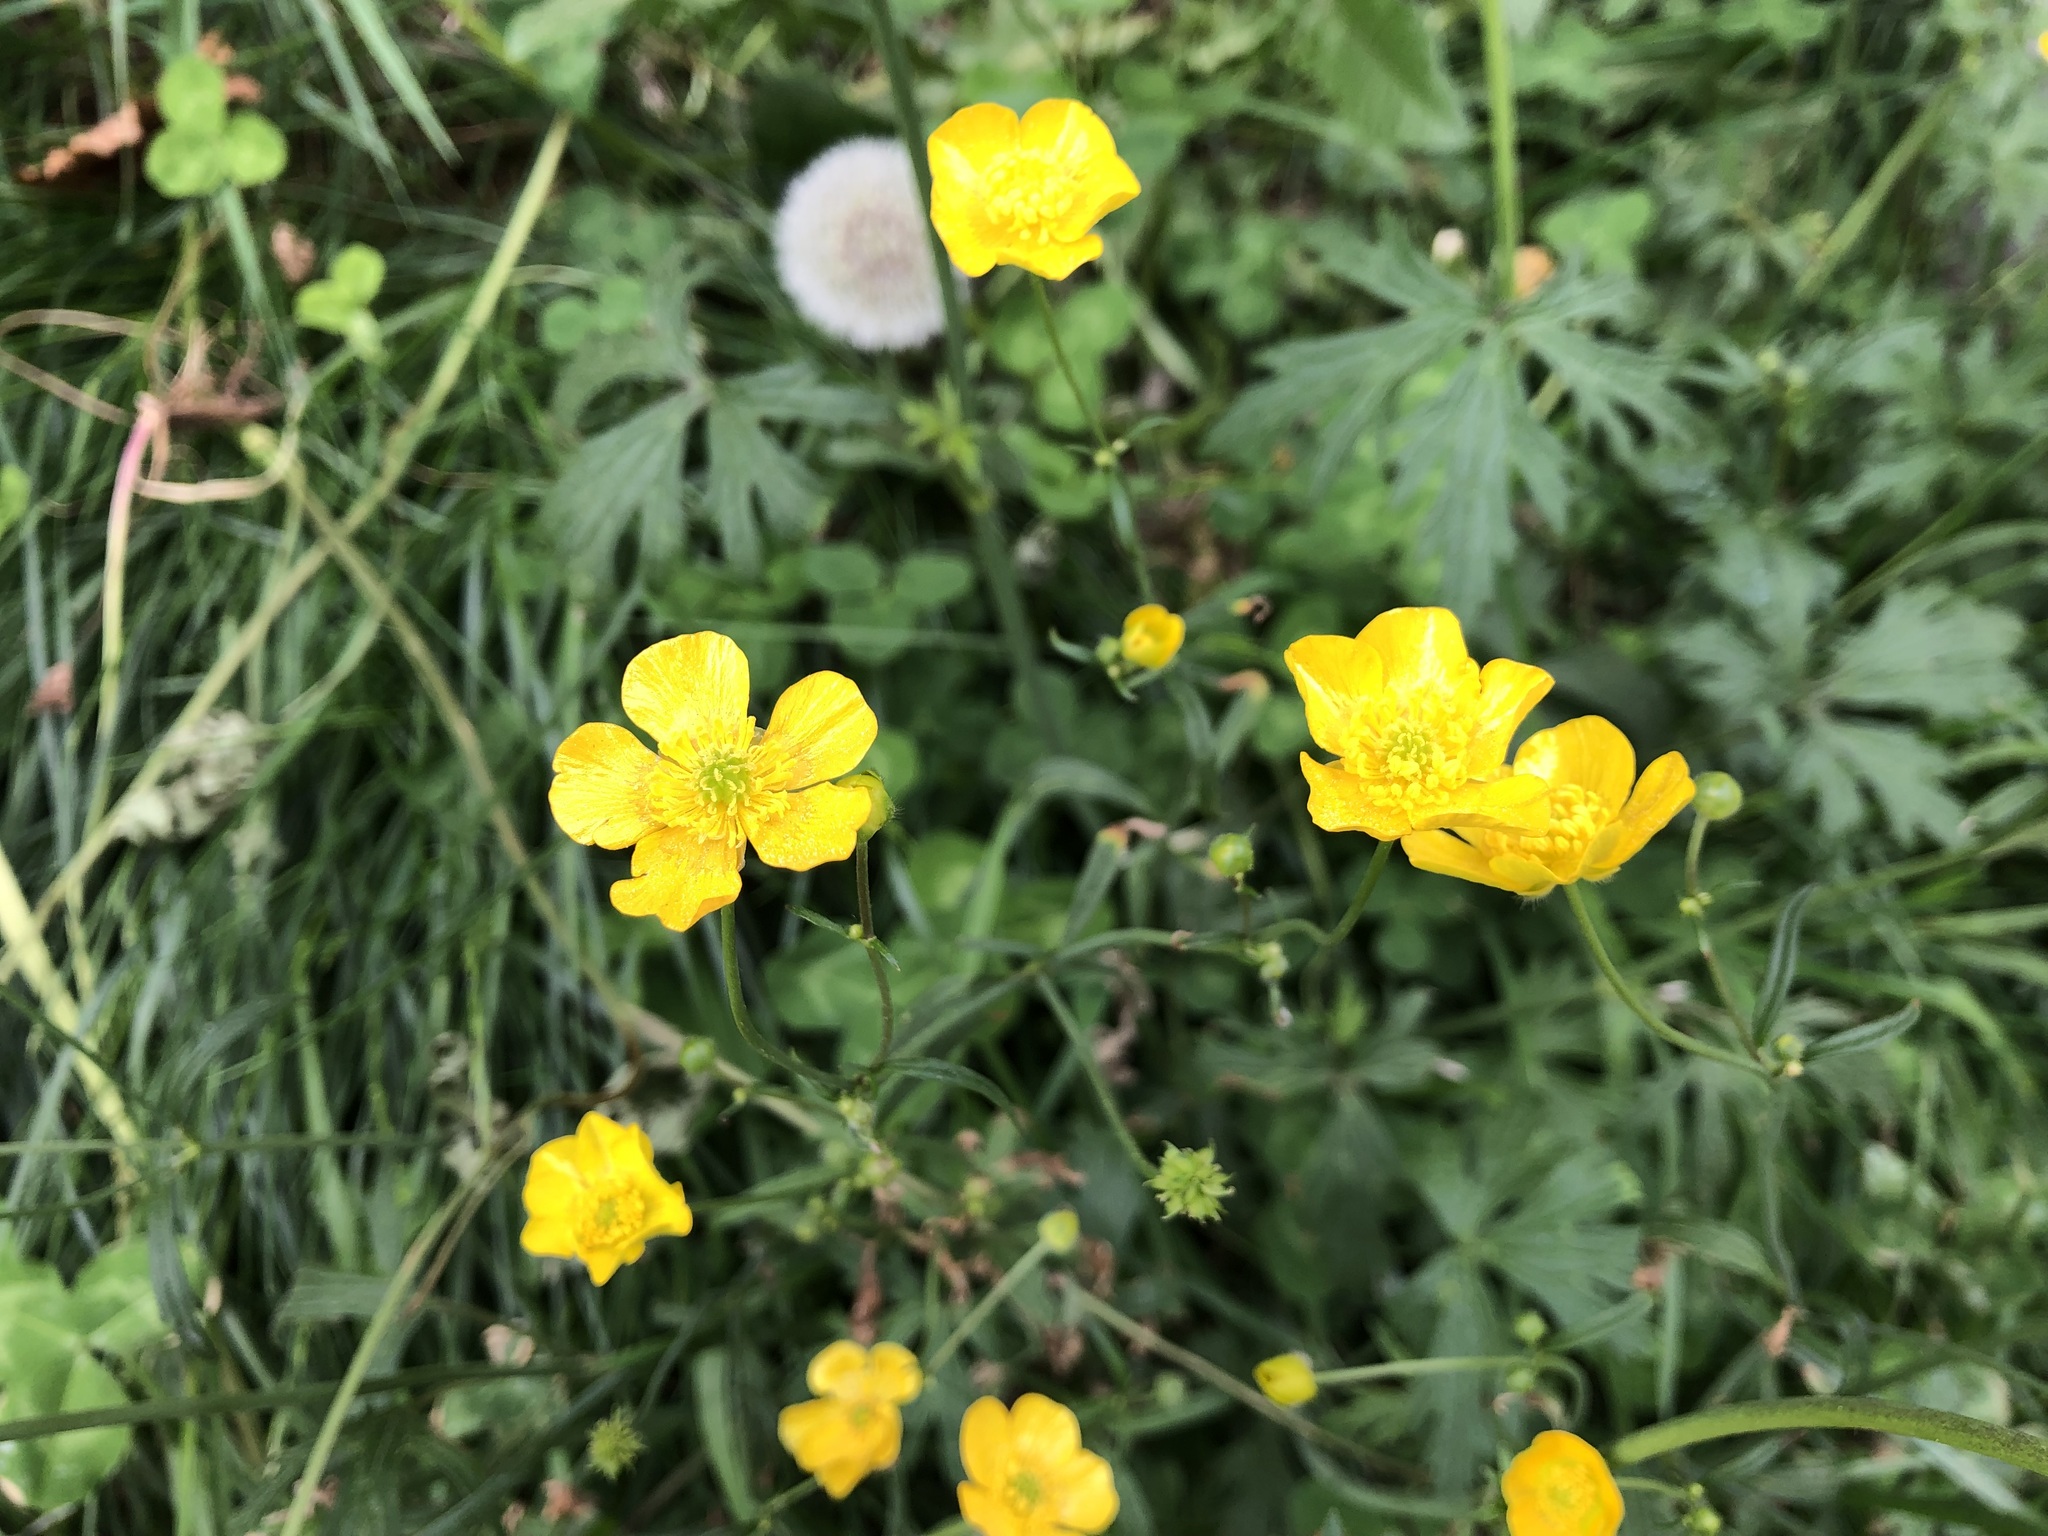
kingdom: Plantae
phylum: Tracheophyta
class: Magnoliopsida
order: Ranunculales
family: Ranunculaceae
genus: Ranunculus
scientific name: Ranunculus acris
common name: Meadow buttercup
